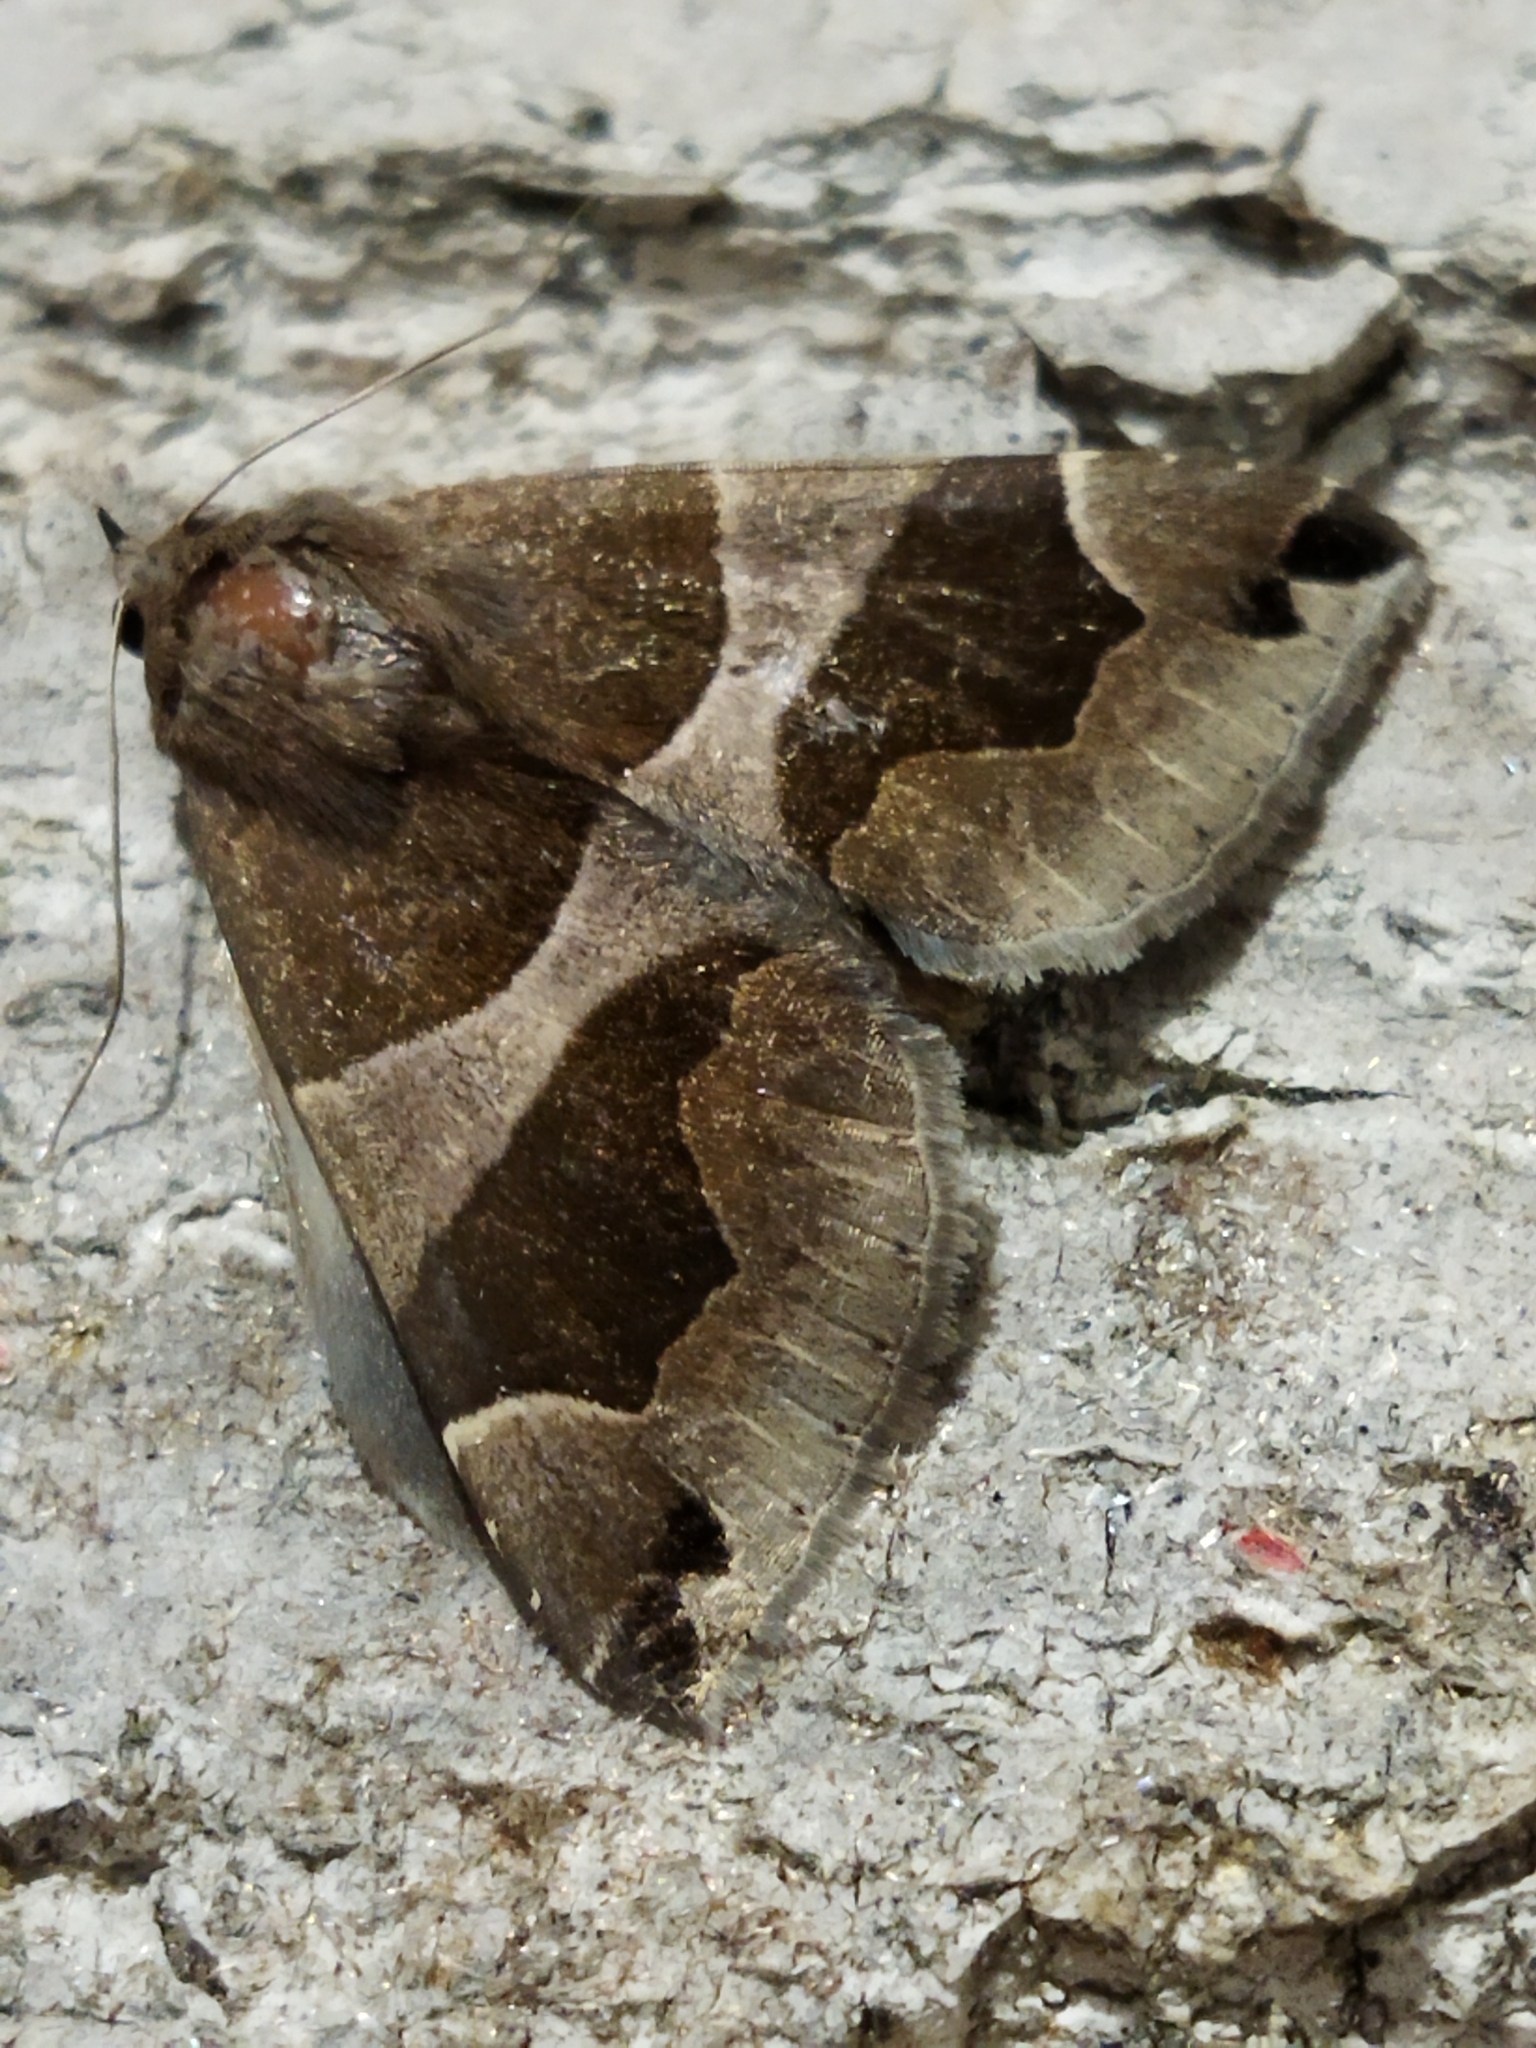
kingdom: Animalia
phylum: Arthropoda
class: Insecta
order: Lepidoptera
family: Erebidae
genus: Dysgonia
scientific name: Dysgonia algira
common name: Passenger
